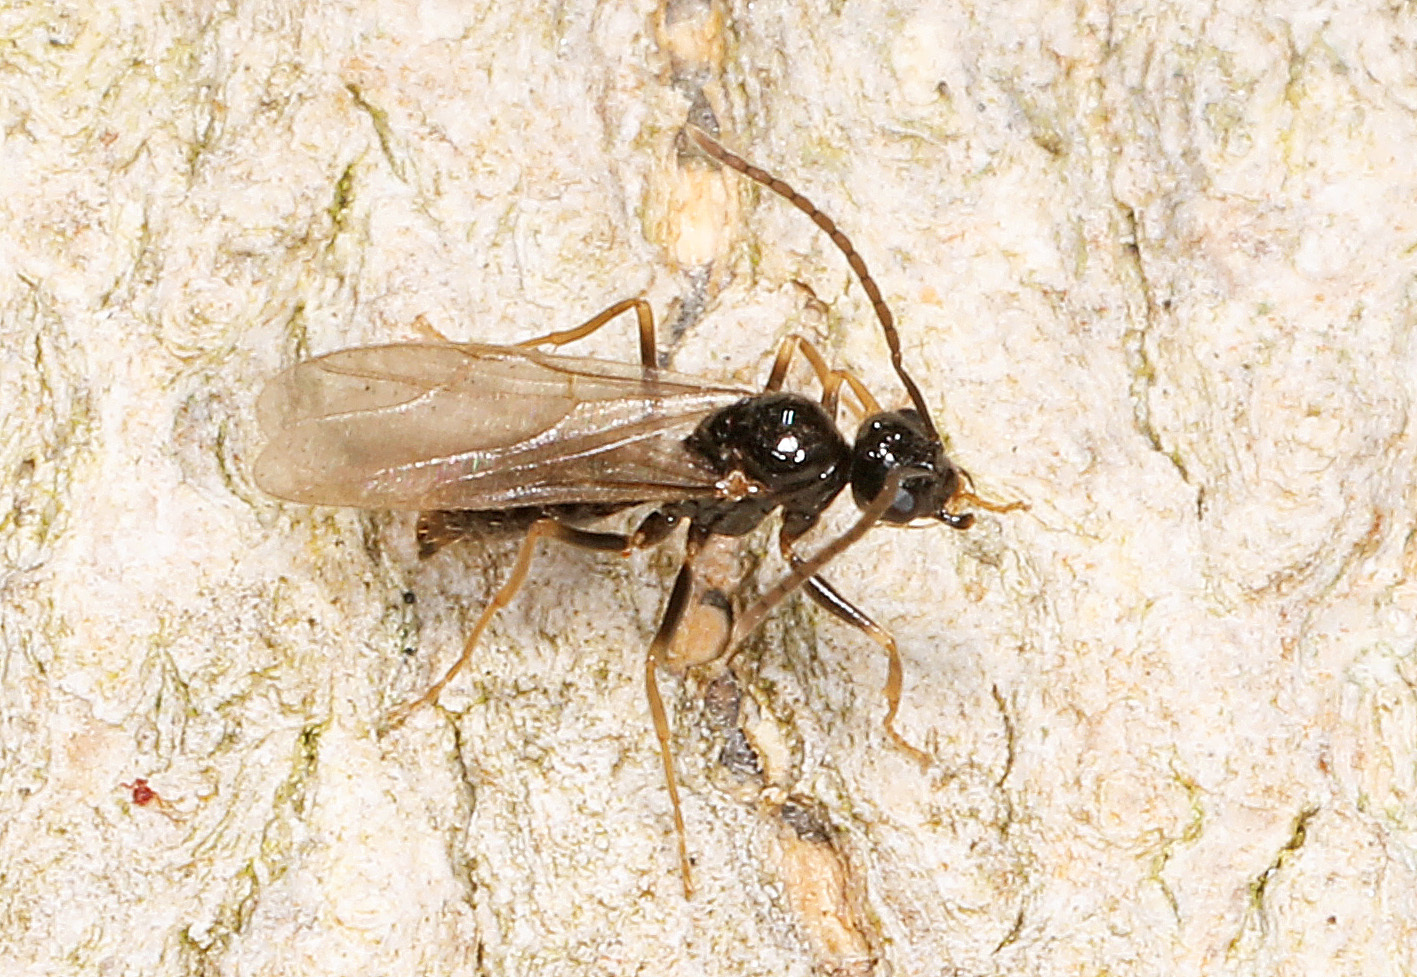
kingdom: Animalia
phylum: Arthropoda
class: Insecta
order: Hymenoptera
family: Formicidae
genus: Prenolepis
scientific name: Prenolepis imparis
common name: Small honey ant
